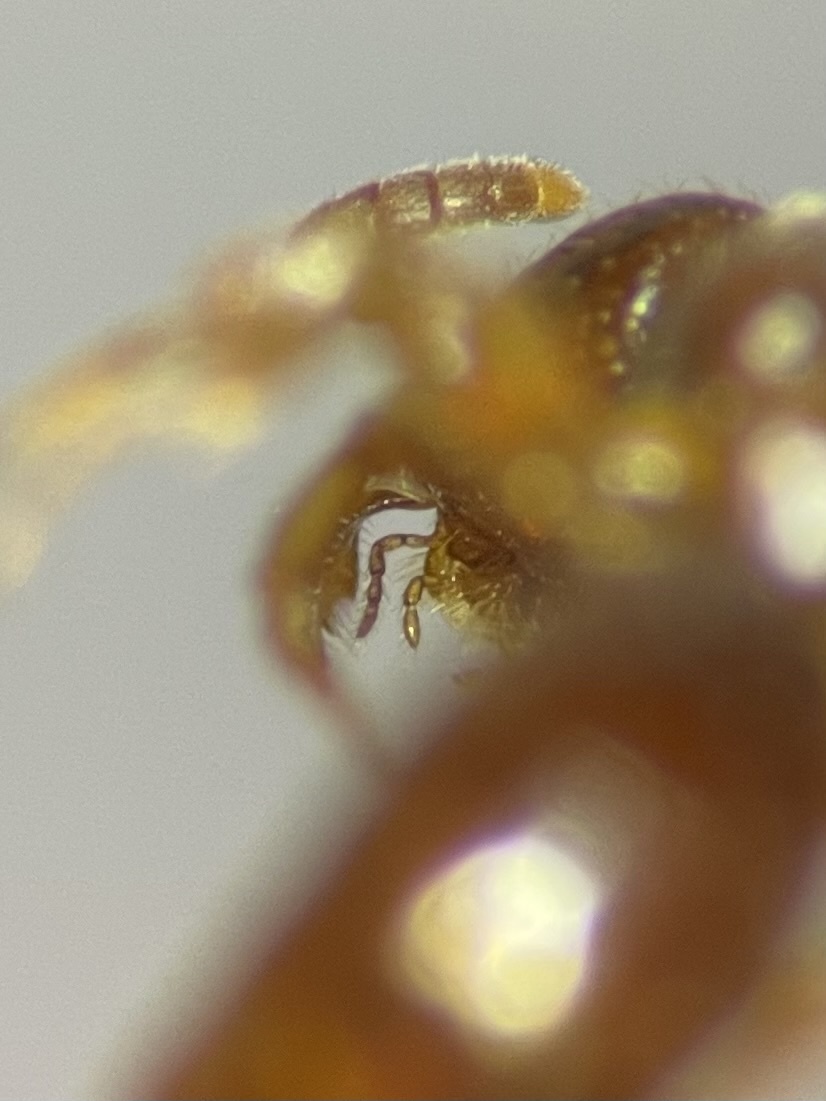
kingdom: Animalia
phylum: Arthropoda
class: Insecta
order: Hymenoptera
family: Bethylidae
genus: Pristepyris
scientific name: Pristepyris
